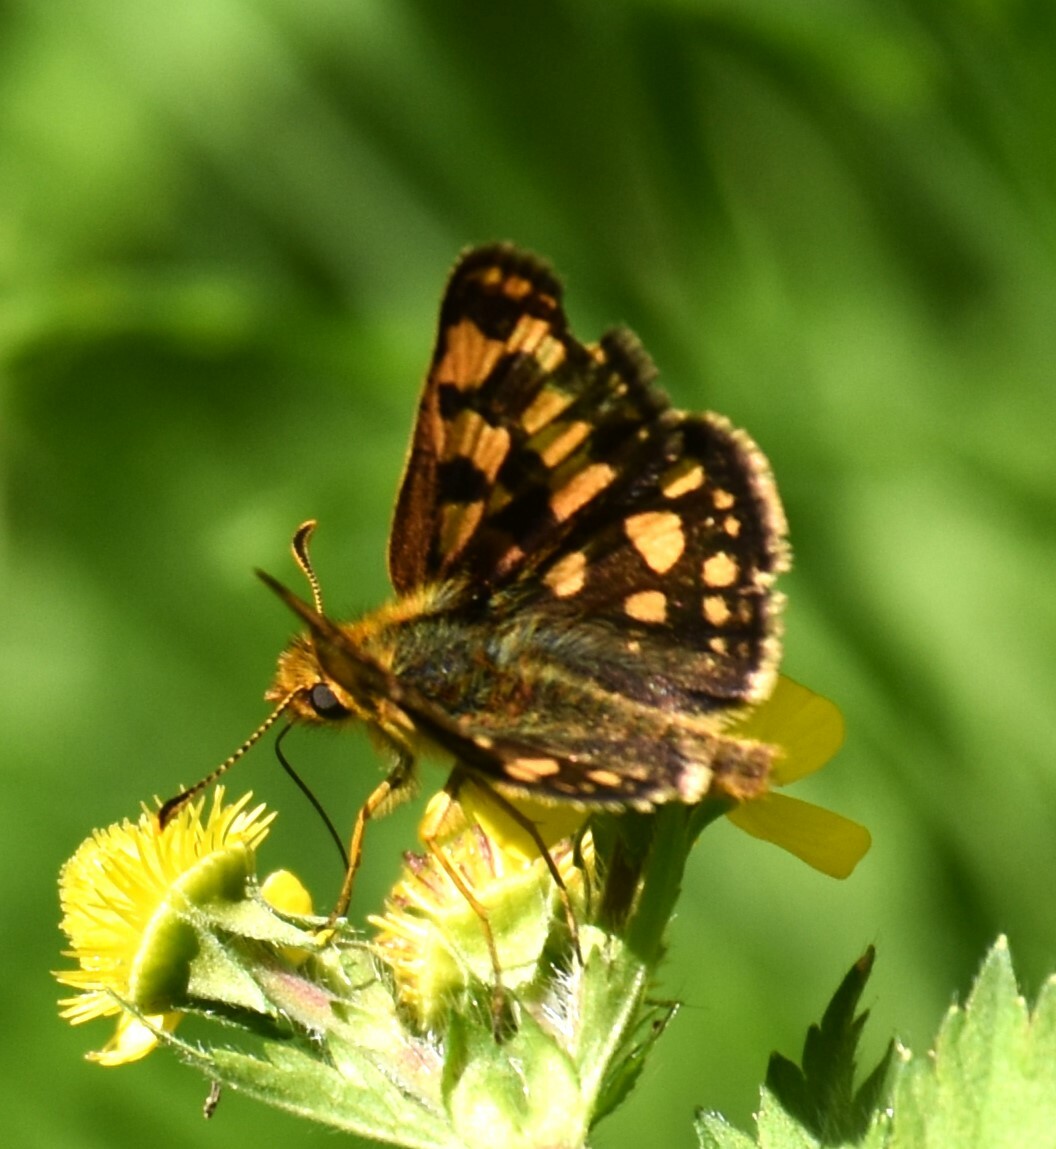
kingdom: Animalia
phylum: Arthropoda
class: Insecta
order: Lepidoptera
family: Hesperiidae
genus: Carterocephalus
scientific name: Carterocephalus skada
